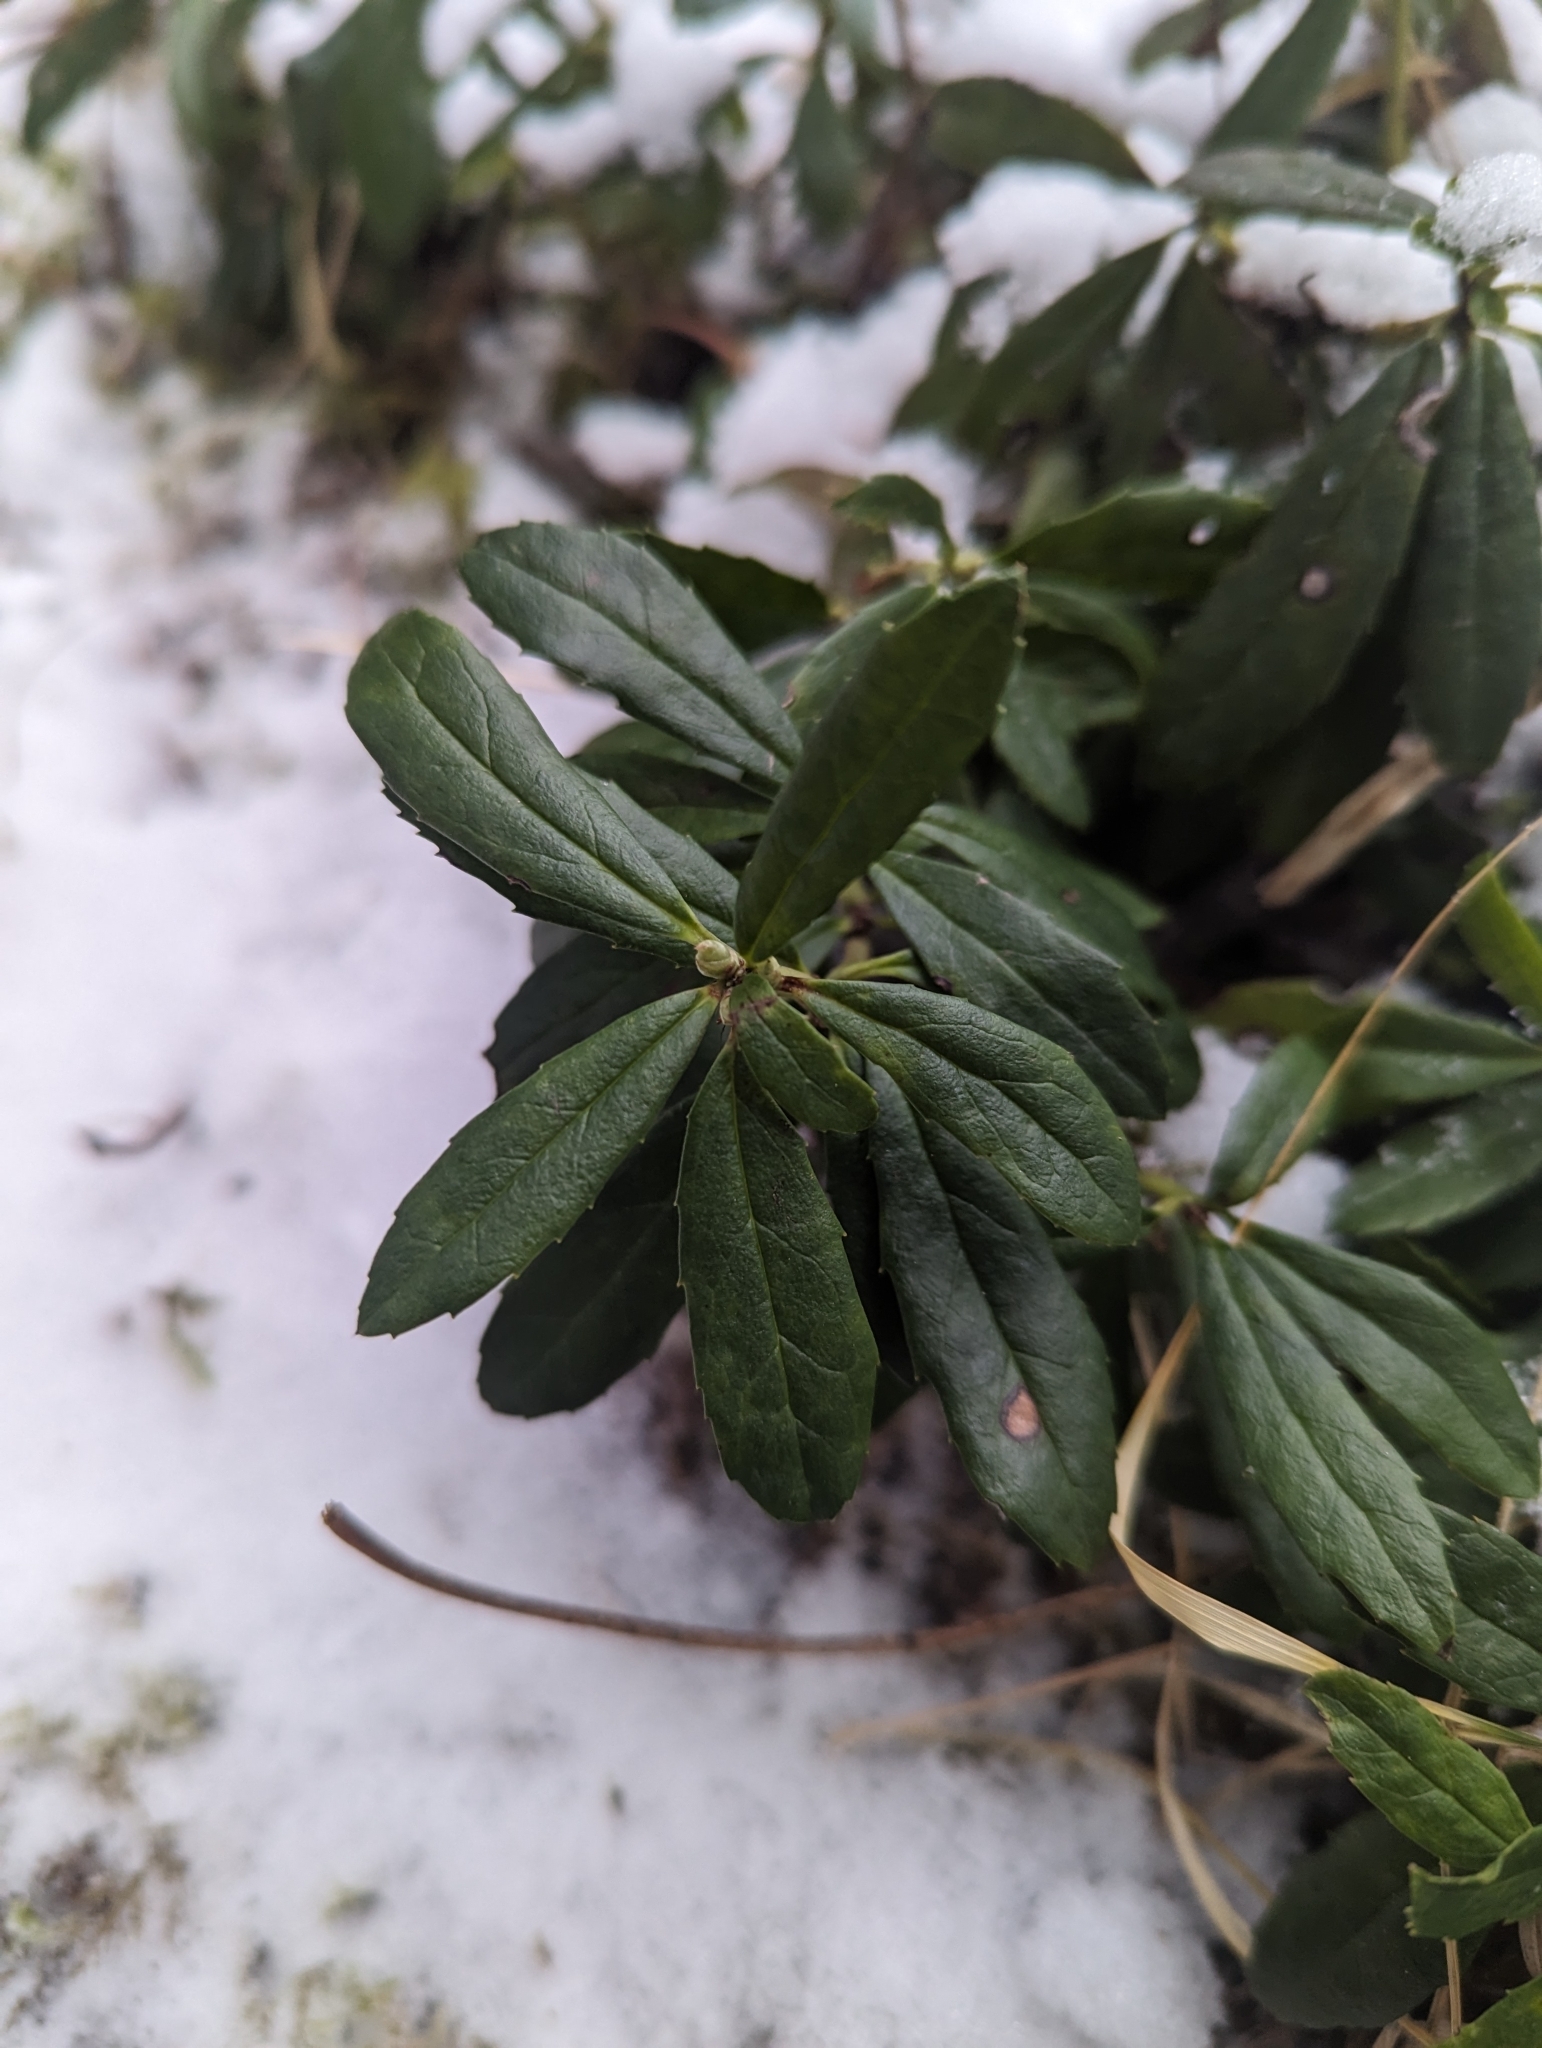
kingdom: Plantae
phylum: Tracheophyta
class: Magnoliopsida
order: Ericales
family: Ericaceae
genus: Chimaphila
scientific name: Chimaphila umbellata
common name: Pipsissewa
